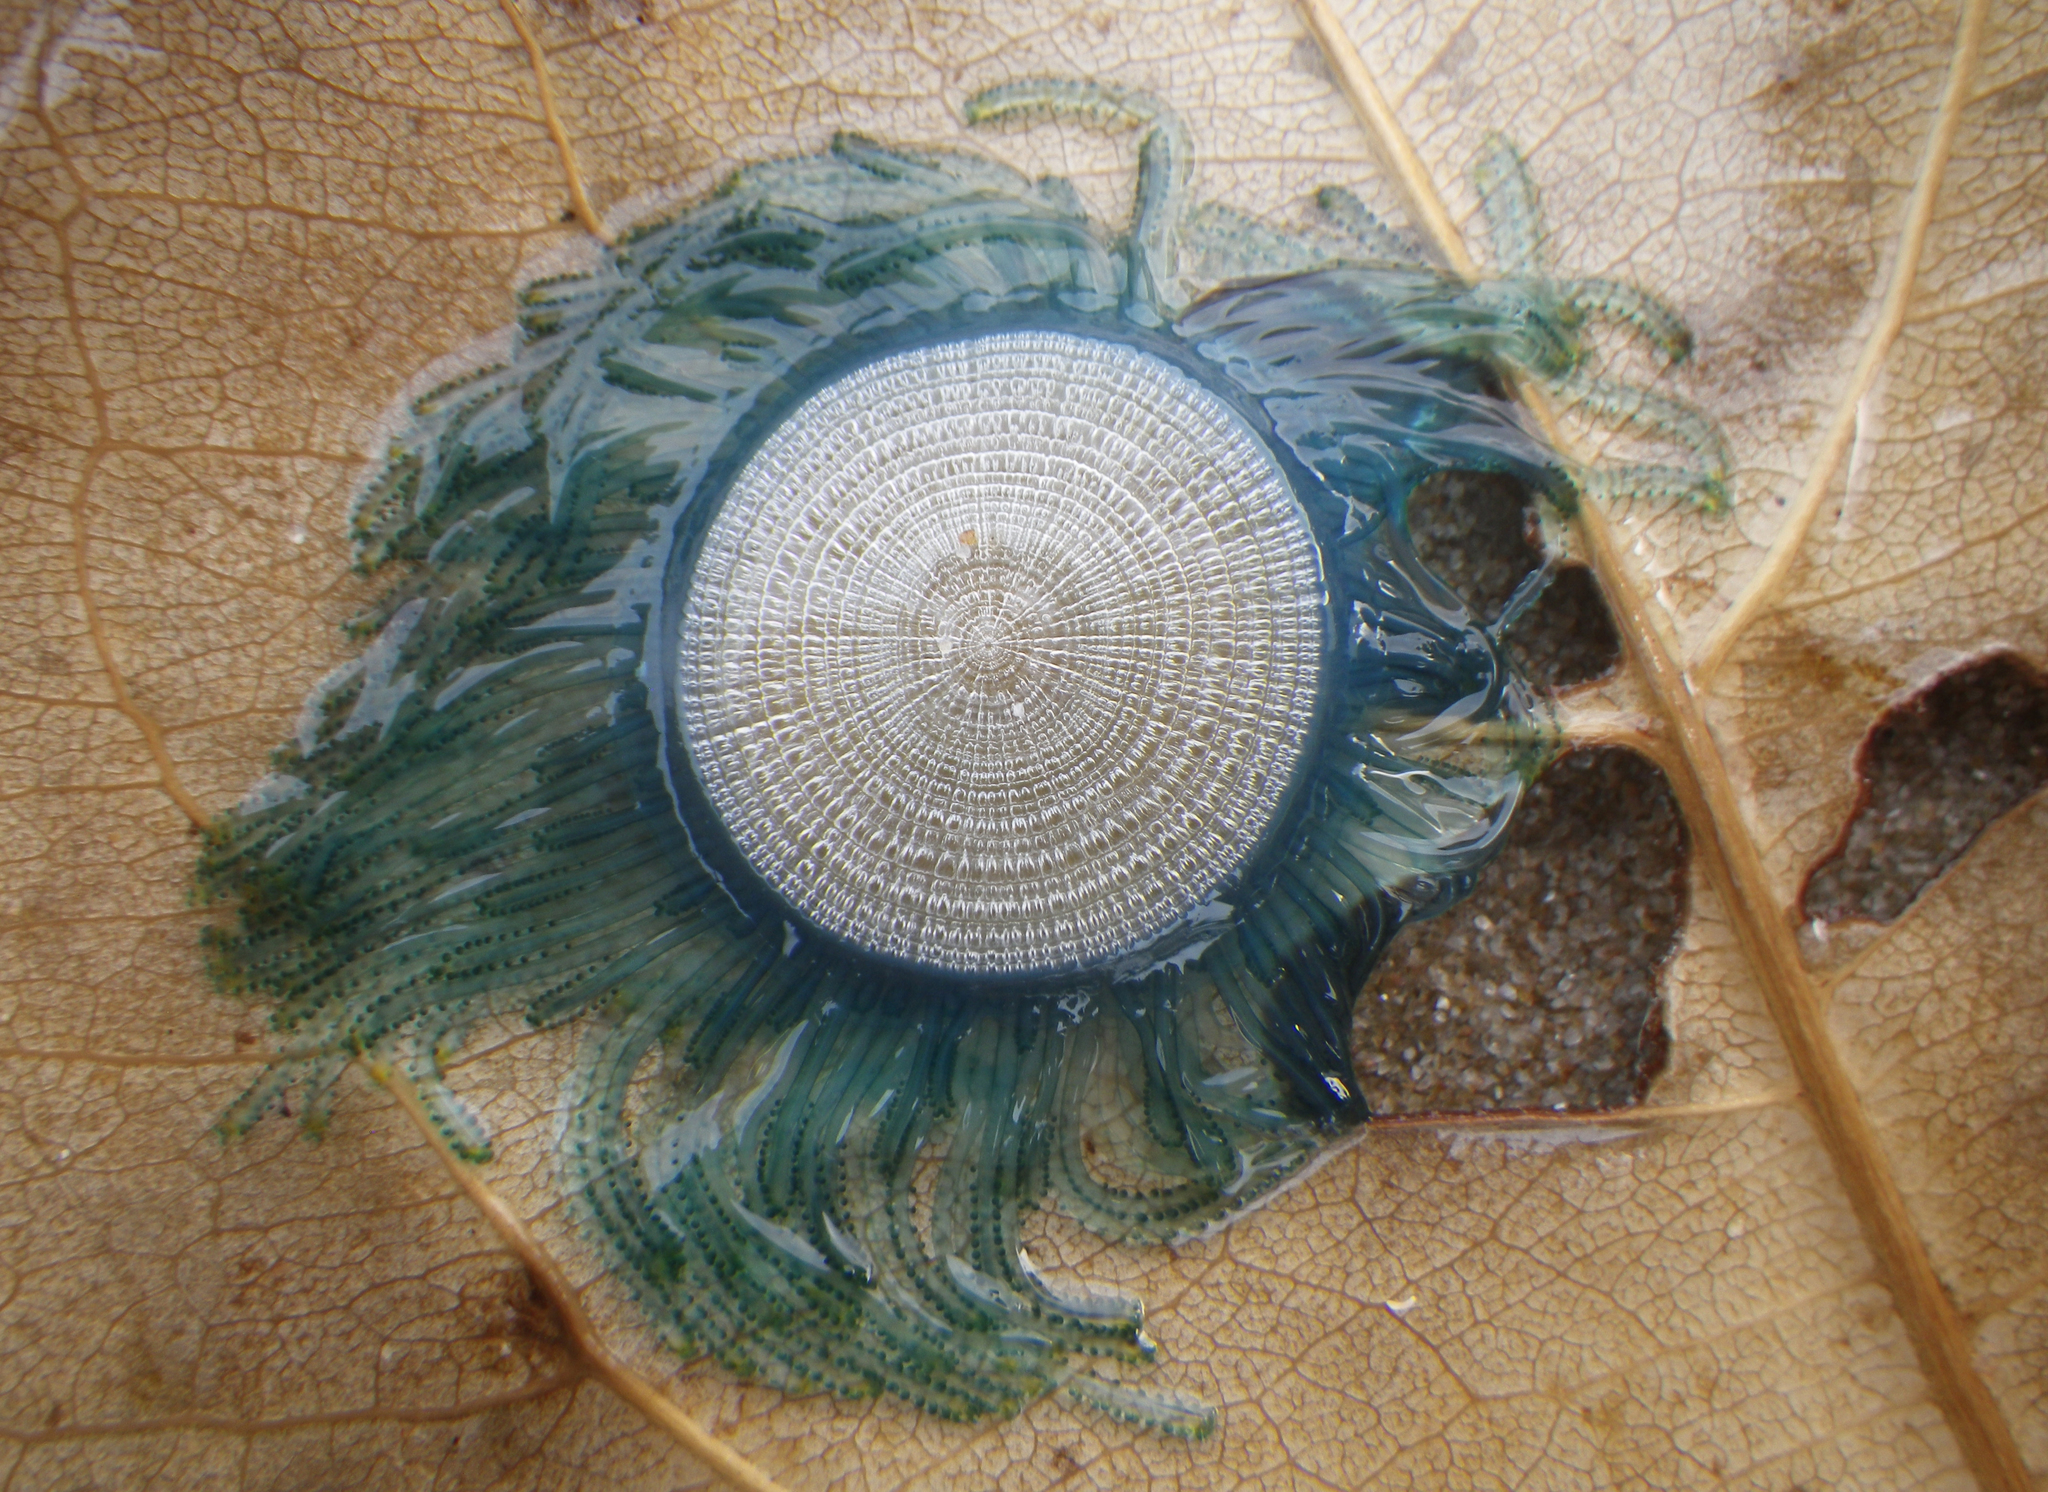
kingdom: Animalia
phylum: Cnidaria
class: Hydrozoa
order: Anthoathecata
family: Porpitidae
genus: Porpita
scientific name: Porpita porpita
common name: Blue button
